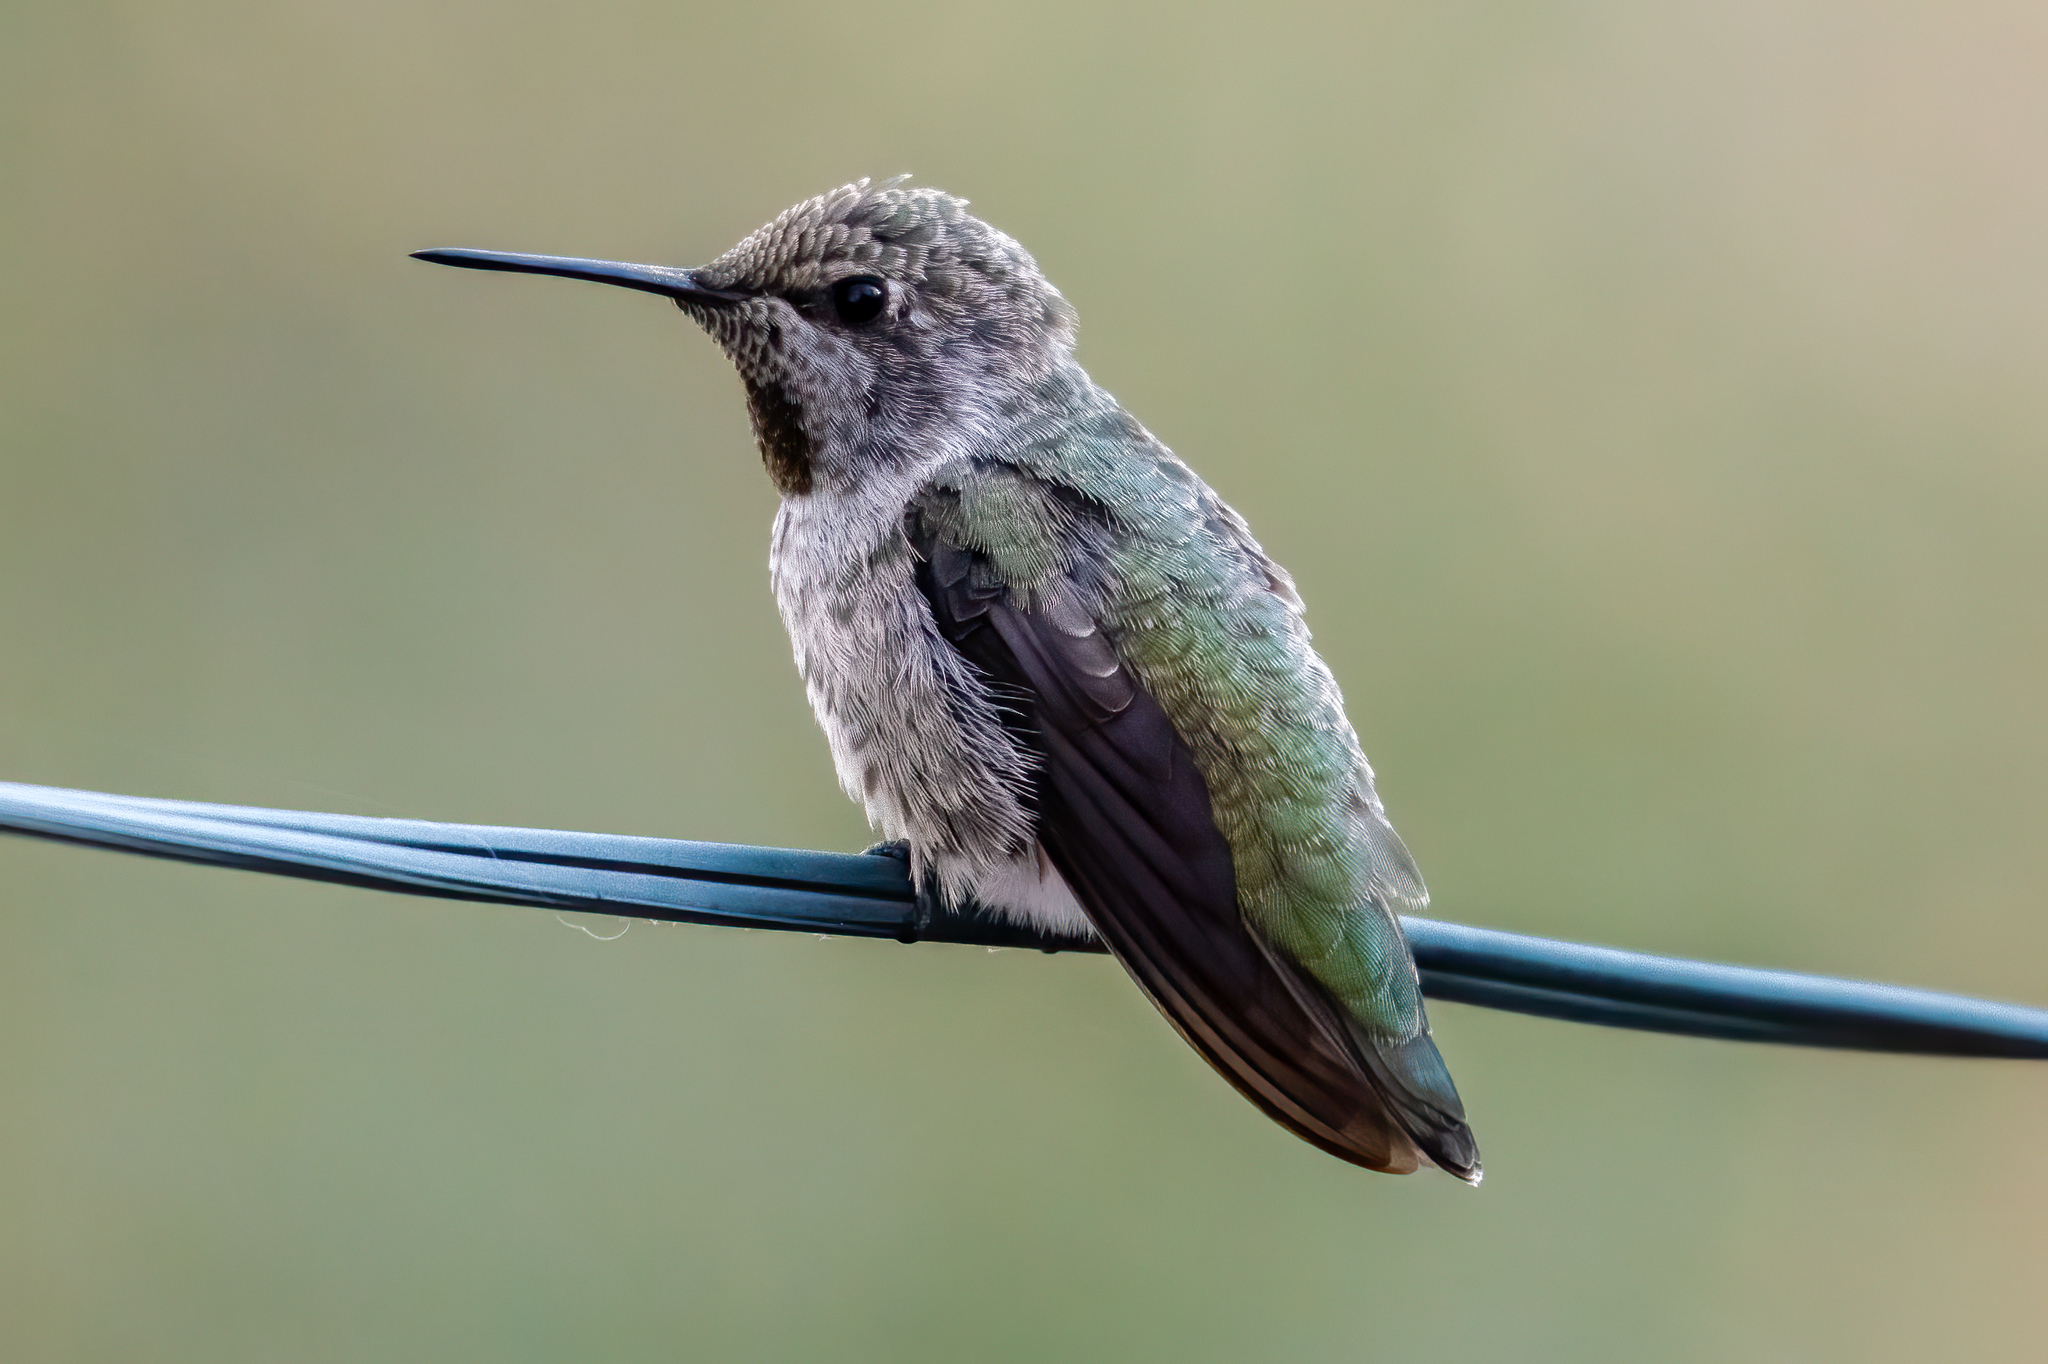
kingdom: Animalia
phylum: Chordata
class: Aves
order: Apodiformes
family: Trochilidae
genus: Calypte
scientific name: Calypte anna
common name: Anna's hummingbird
